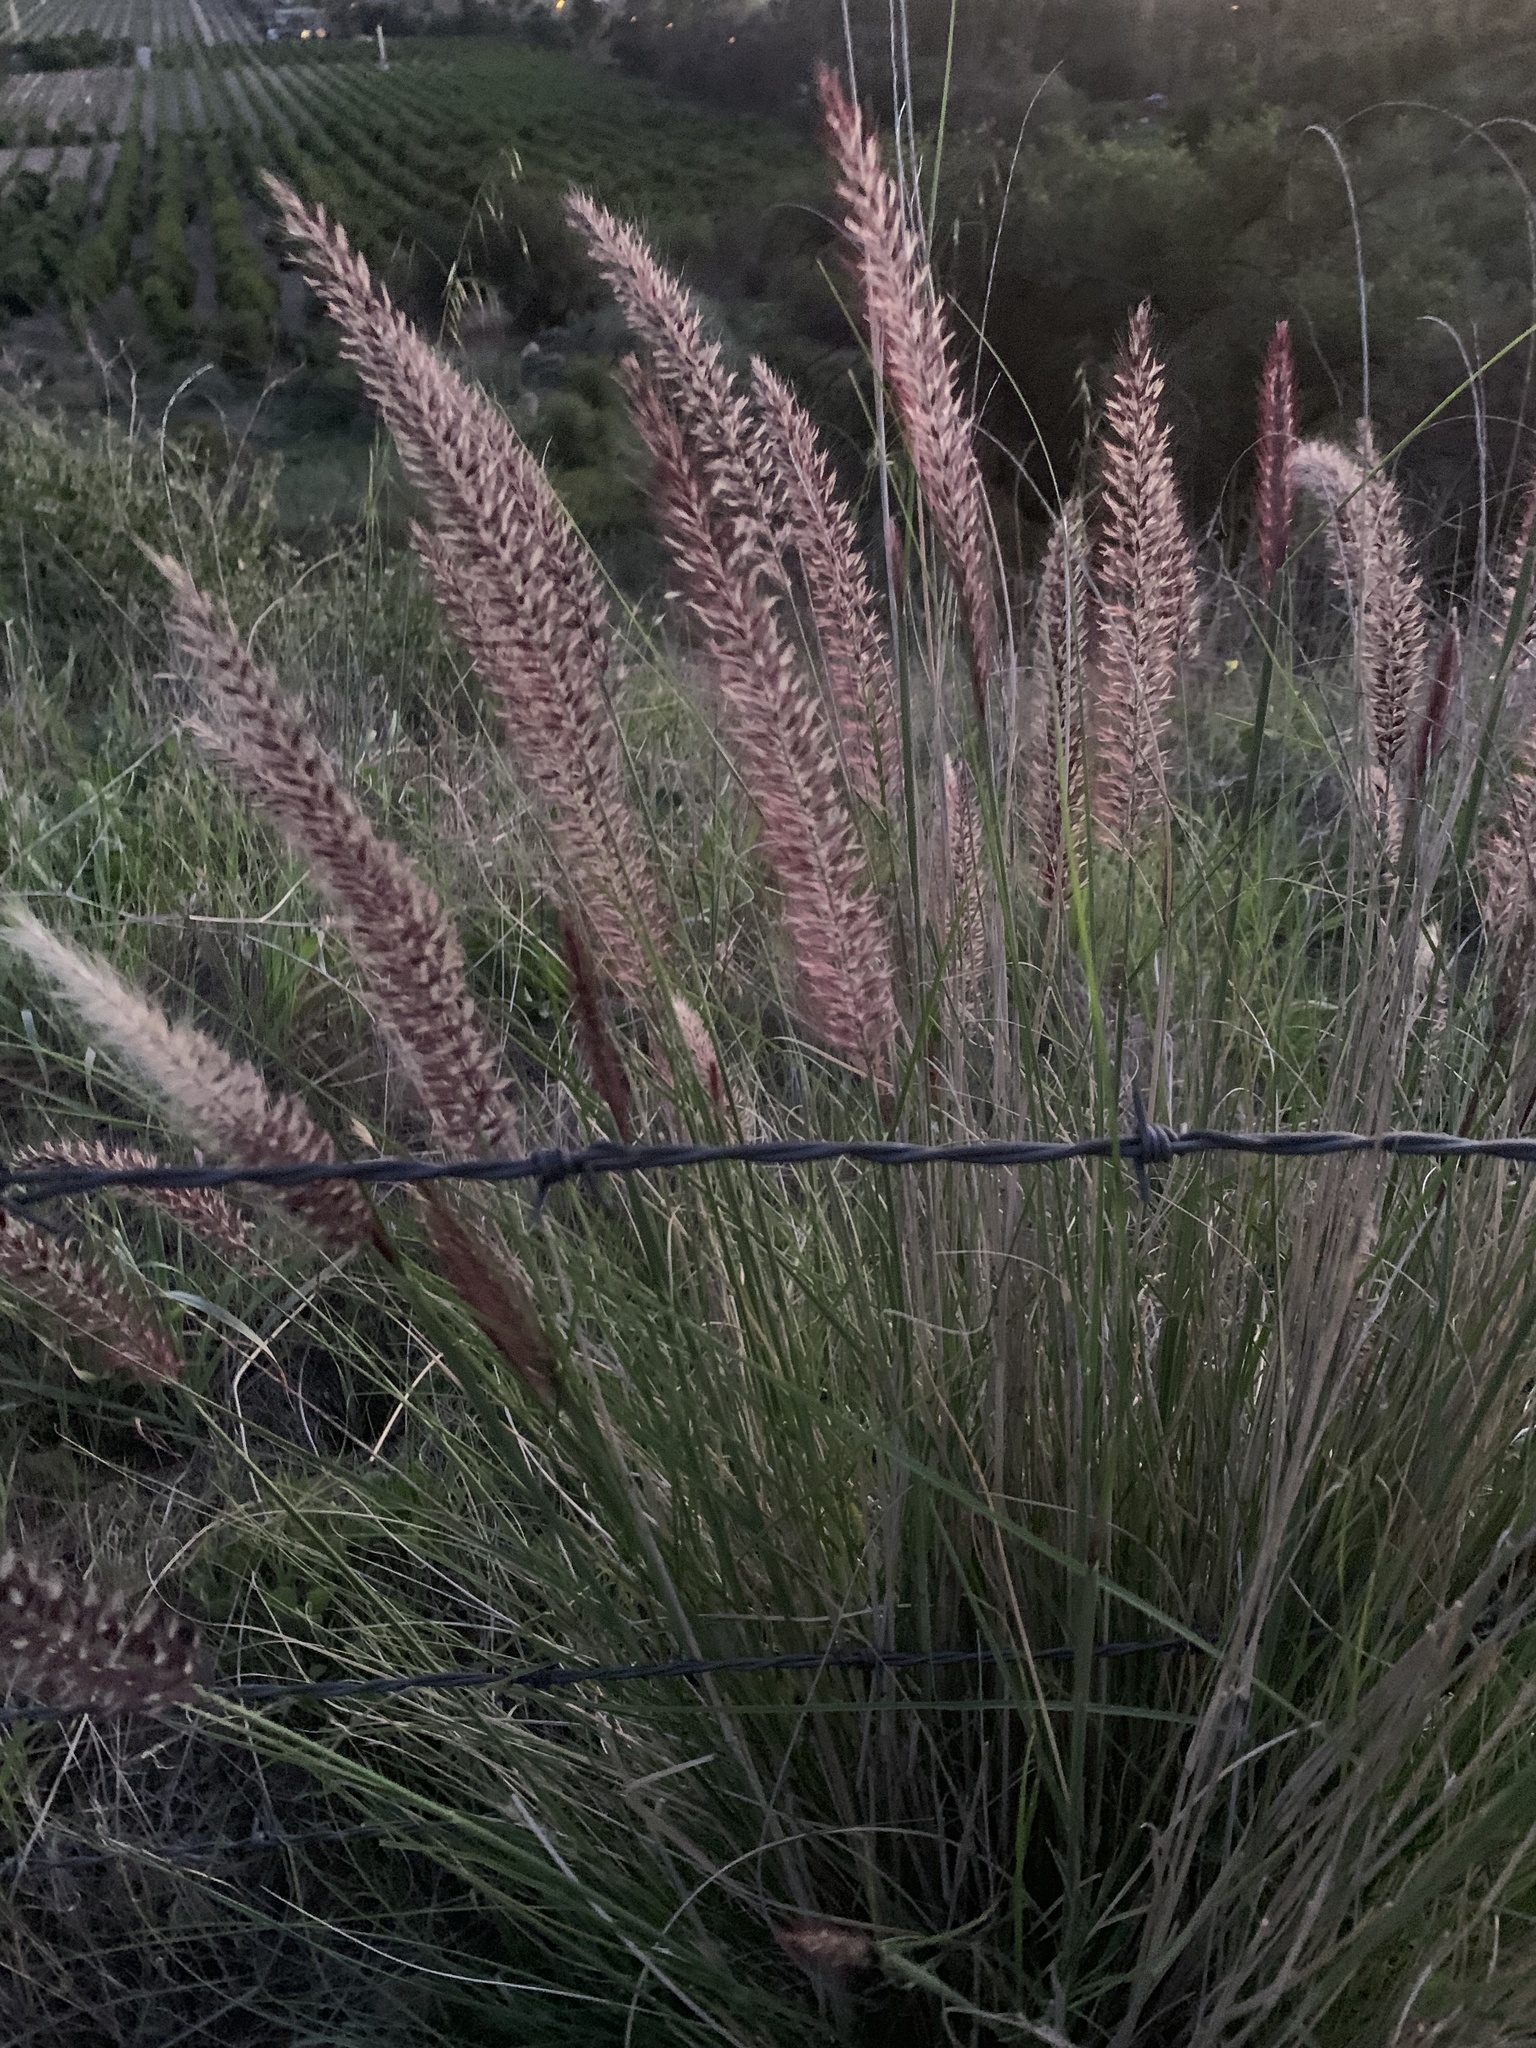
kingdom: Plantae
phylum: Tracheophyta
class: Liliopsida
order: Poales
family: Poaceae
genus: Cenchrus
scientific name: Cenchrus setaceus
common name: Crimson fountaingrass
